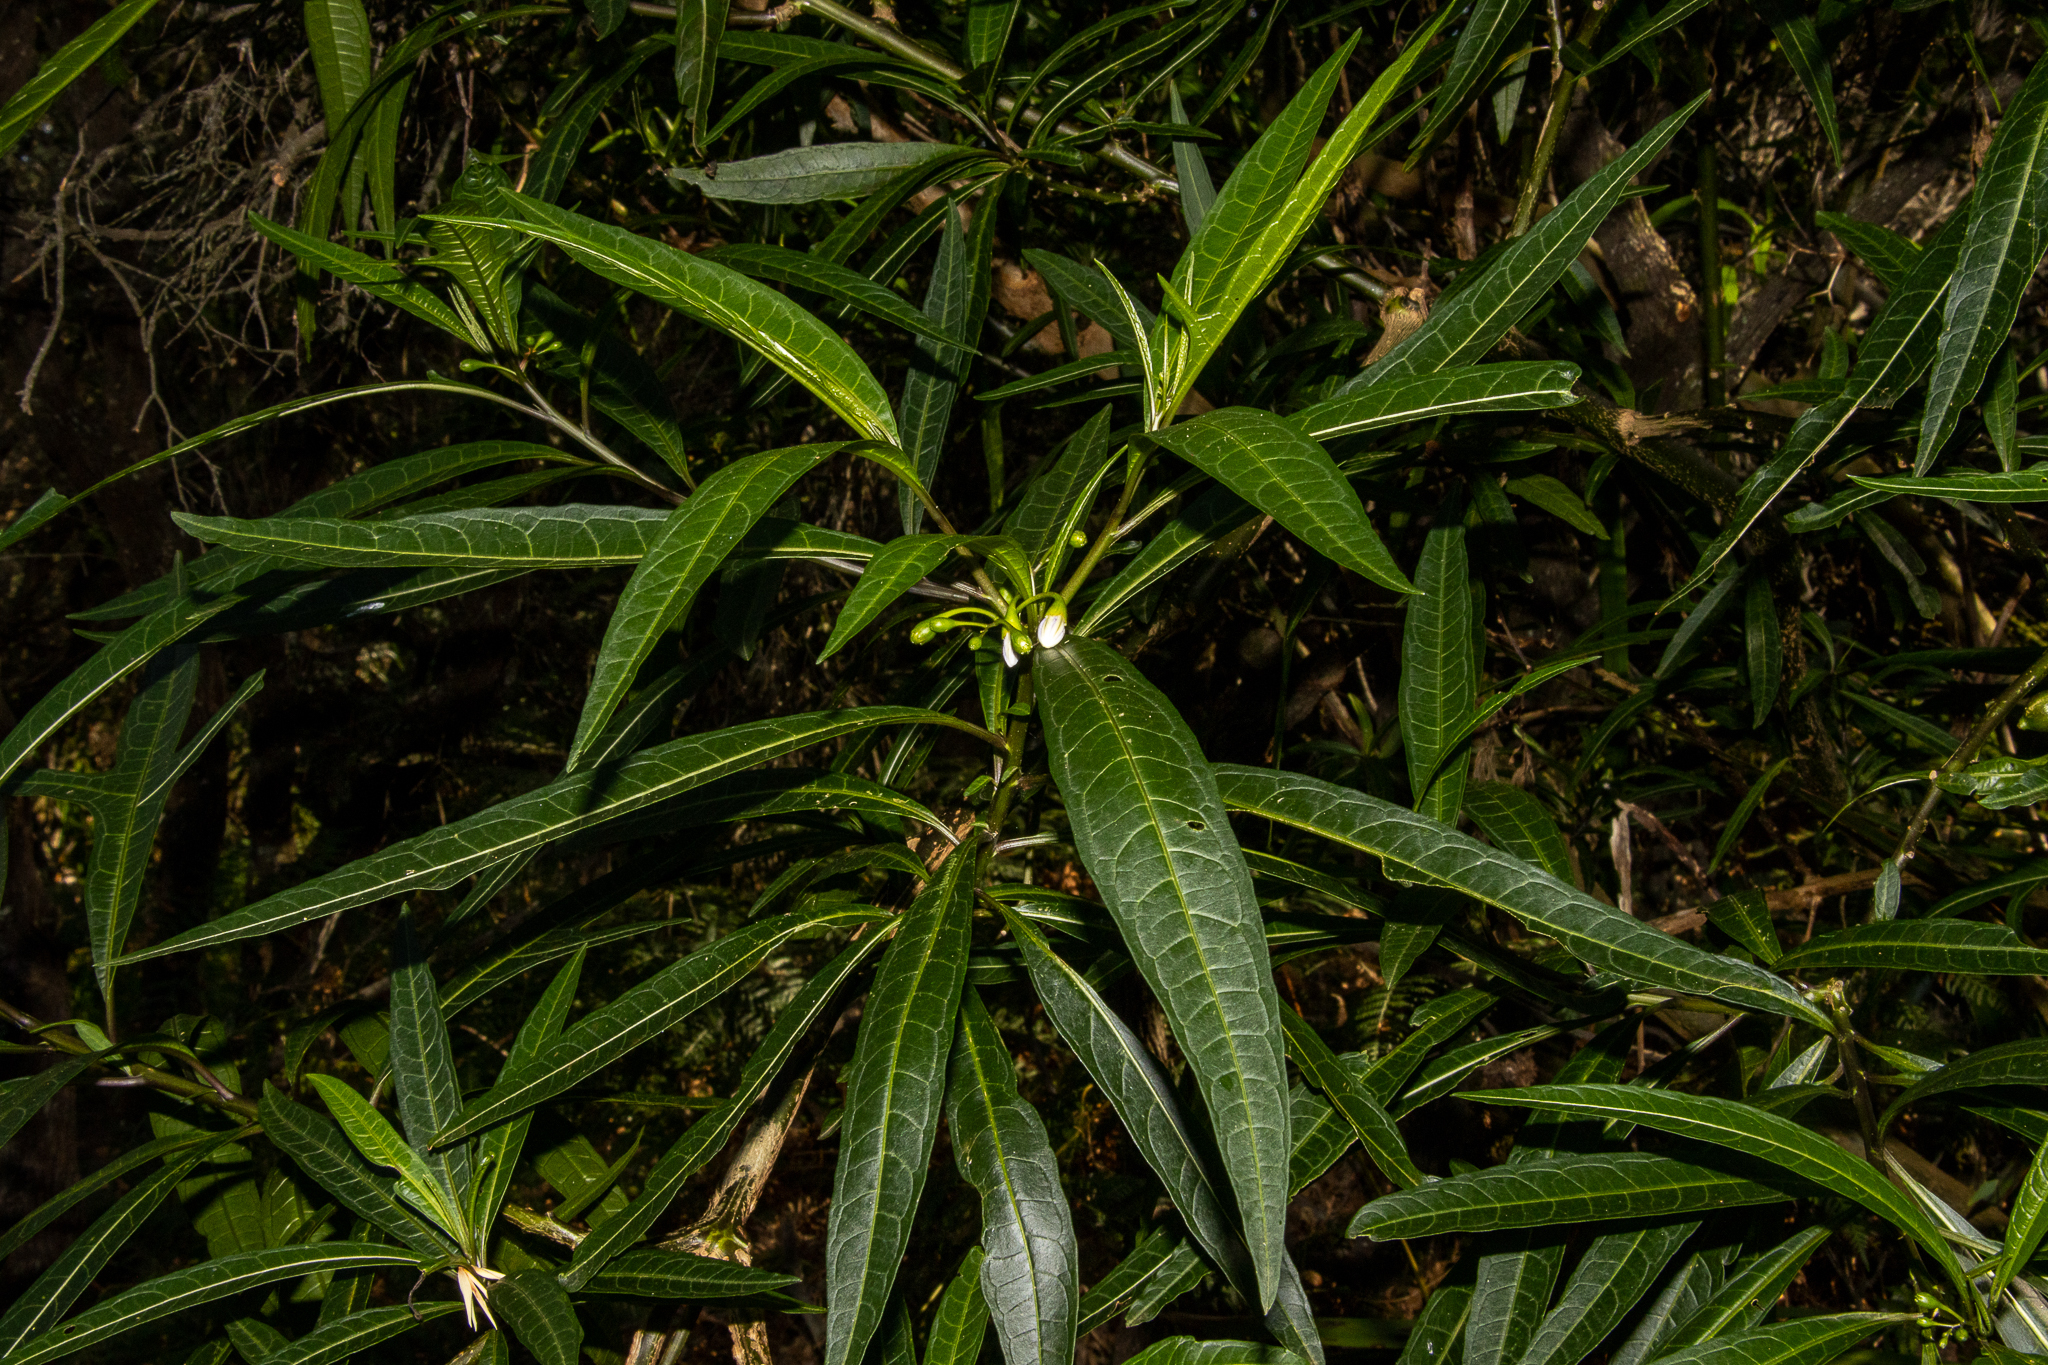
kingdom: Plantae
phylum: Tracheophyta
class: Magnoliopsida
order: Solanales
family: Solanaceae
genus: Solanum
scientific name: Solanum aviculare
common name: New zealand nightshade
